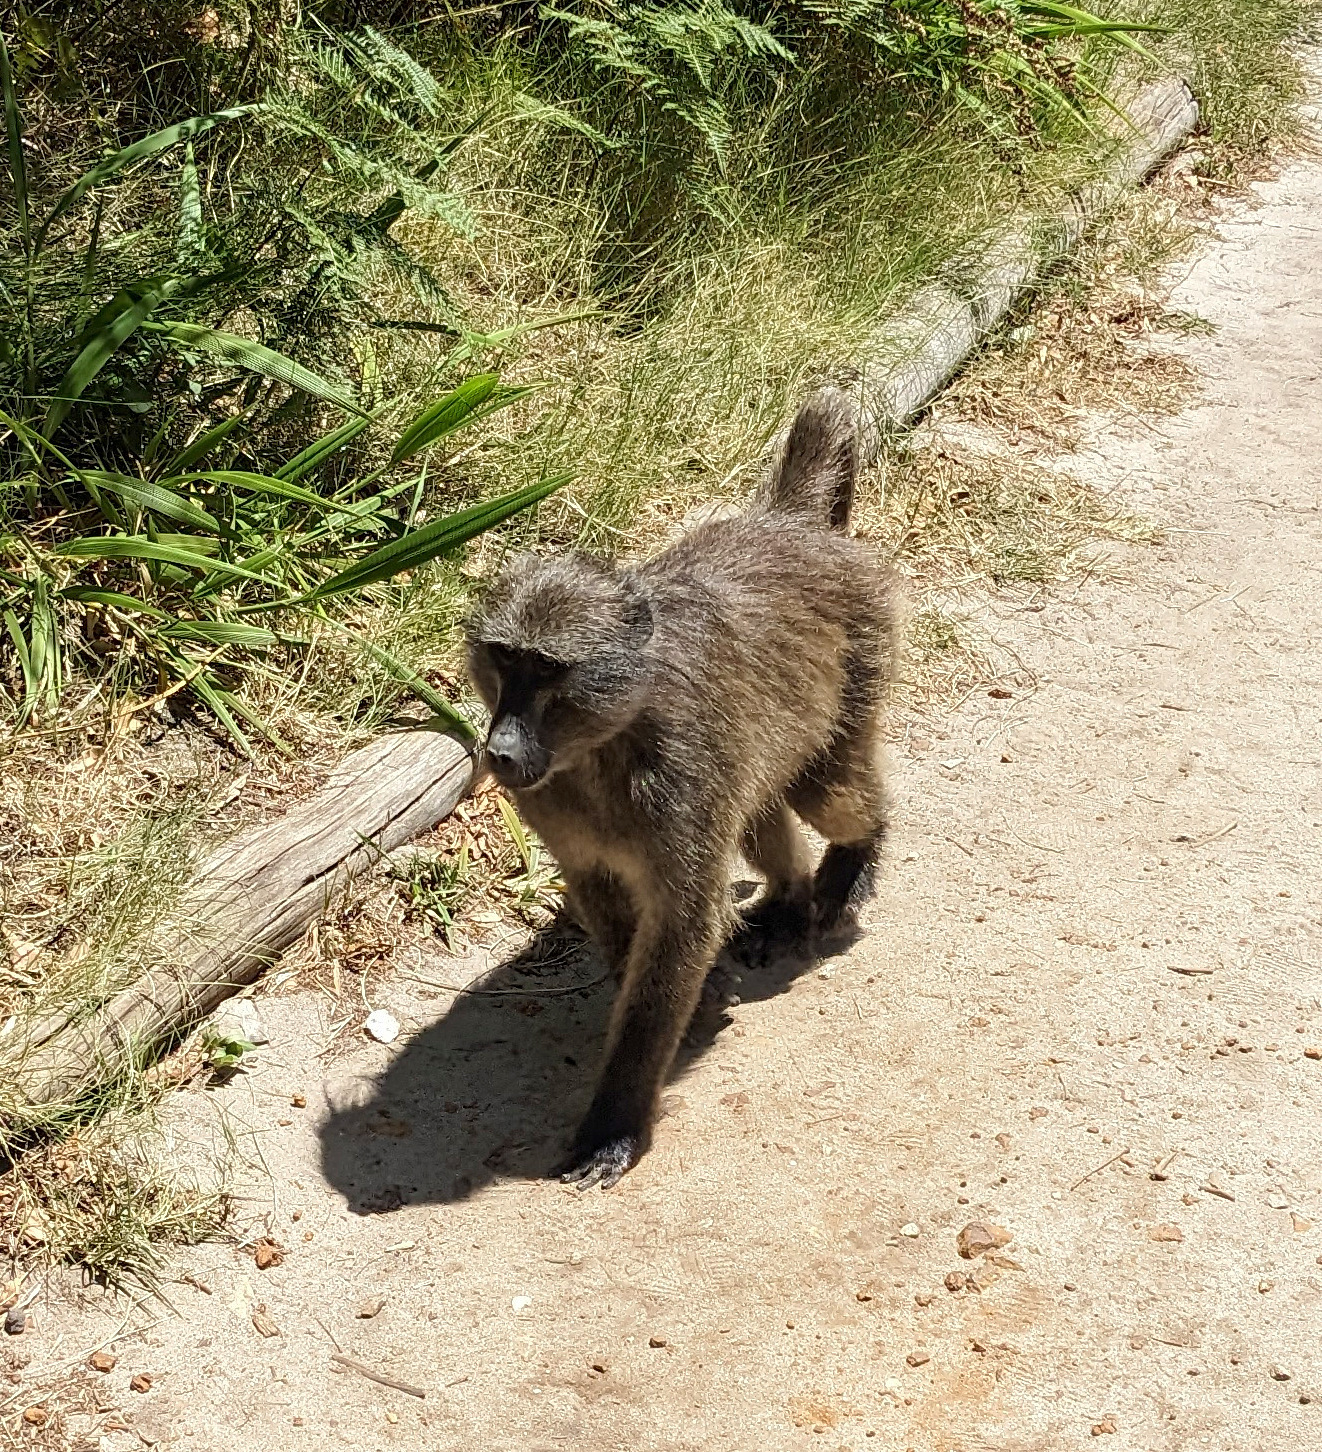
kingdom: Animalia
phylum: Chordata
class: Mammalia
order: Primates
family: Cercopithecidae
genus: Papio
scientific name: Papio ursinus
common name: Chacma baboon
